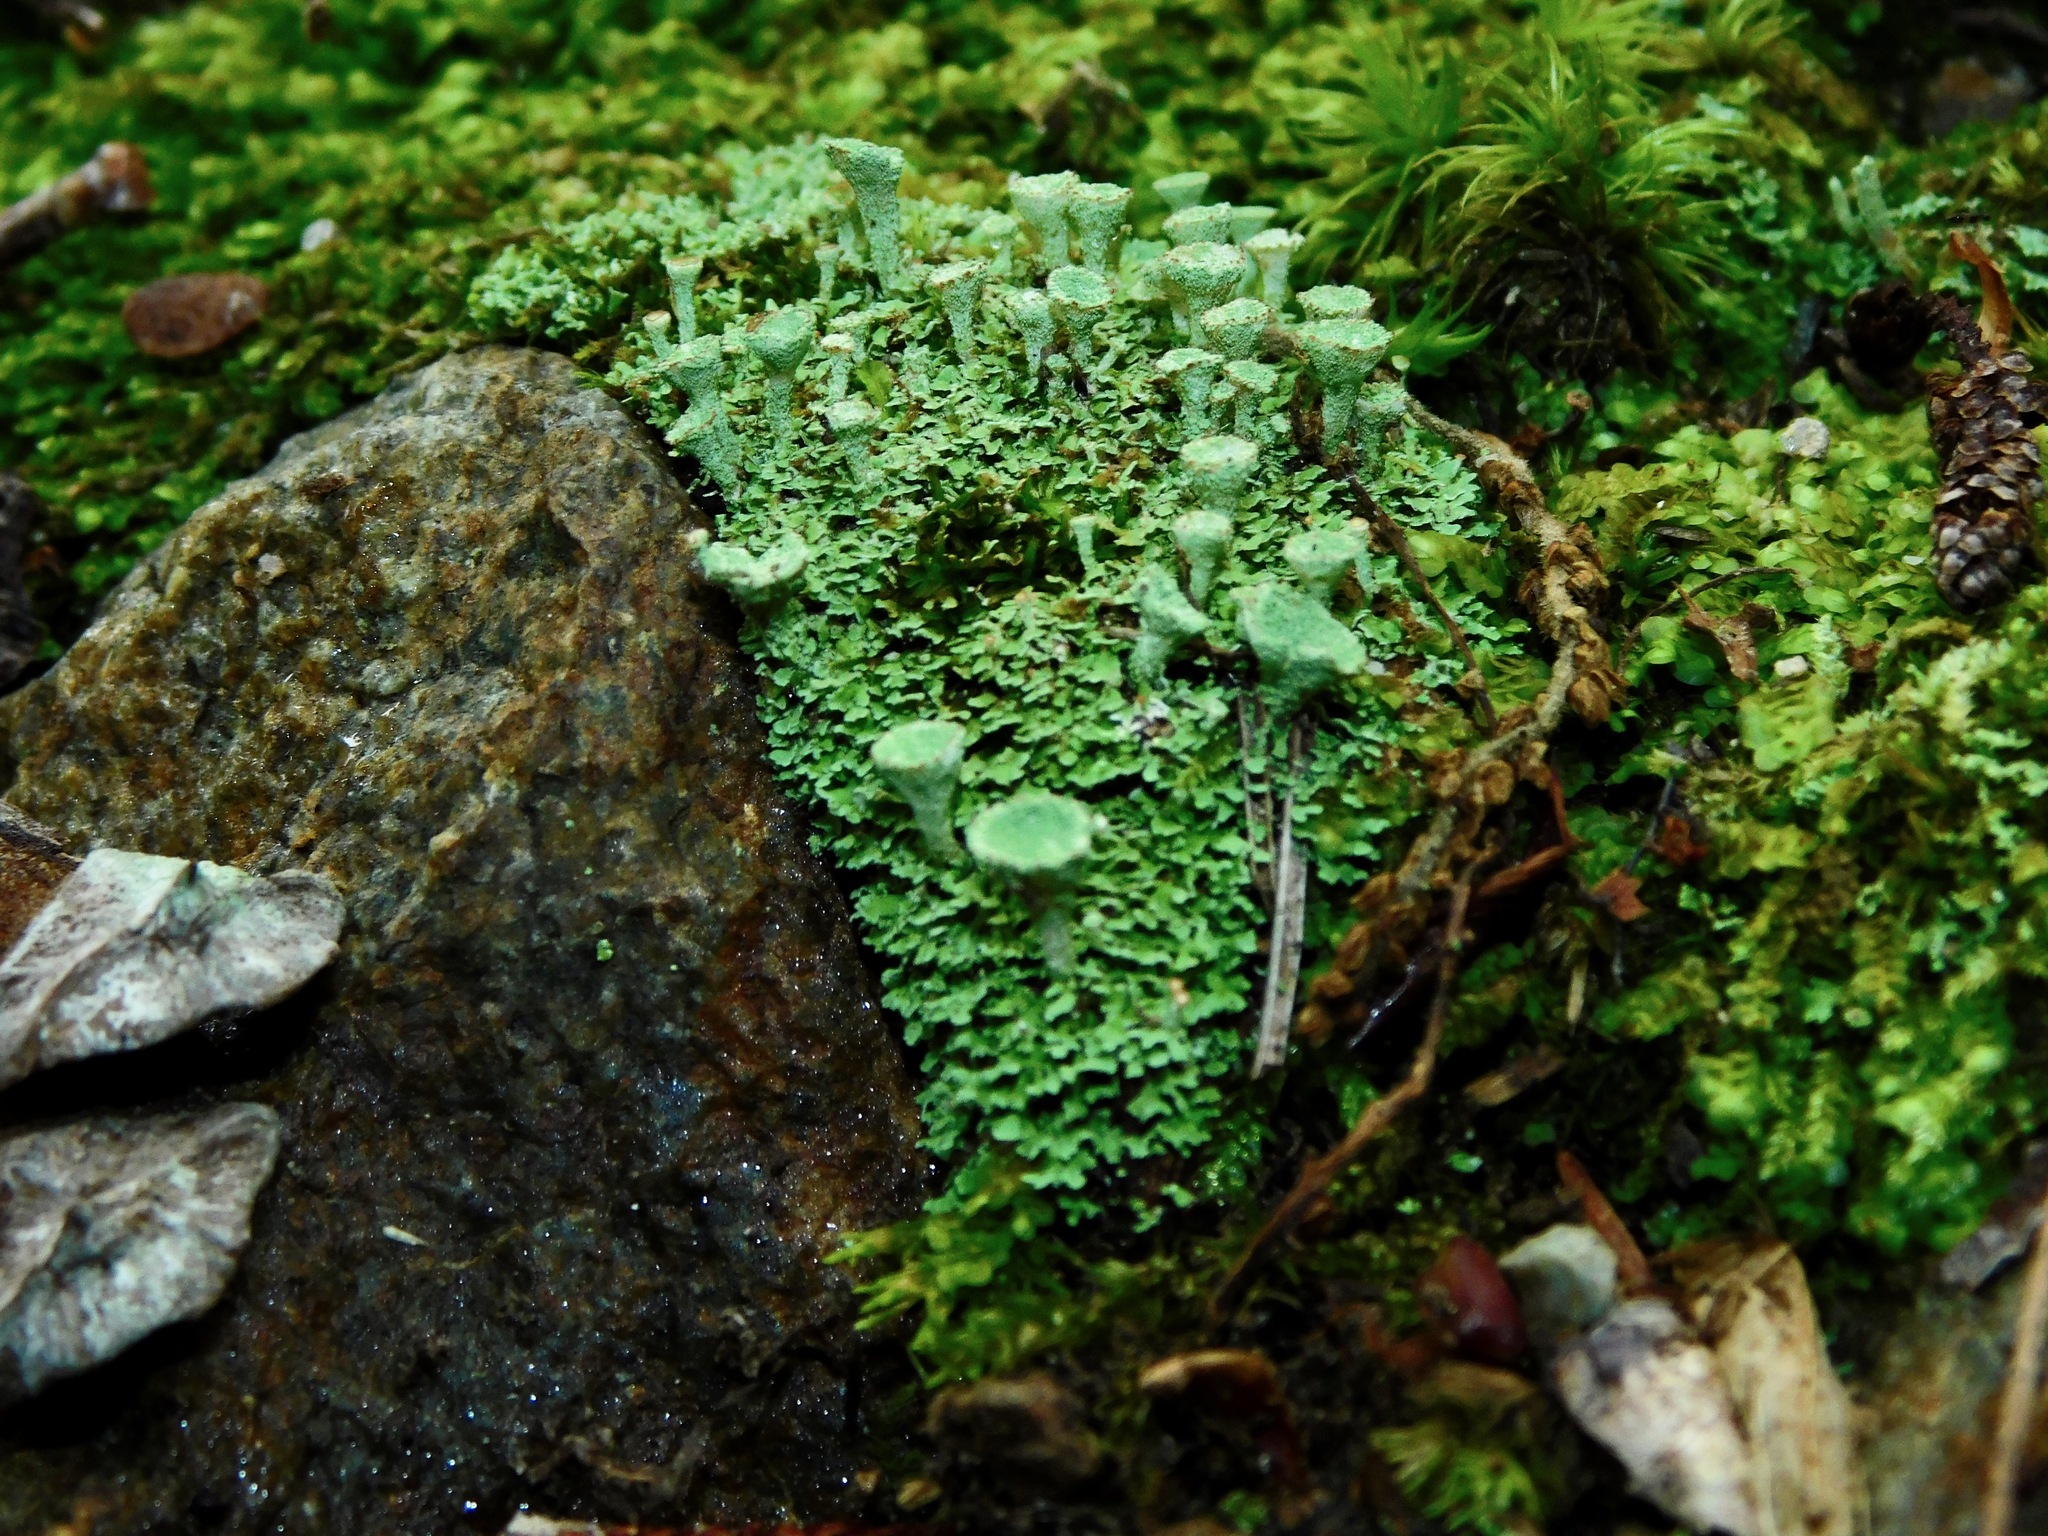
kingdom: Fungi
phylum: Ascomycota
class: Lecanoromycetes
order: Lecanorales
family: Cladoniaceae
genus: Cladonia
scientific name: Cladonia grayi
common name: Gray's cup lichen
